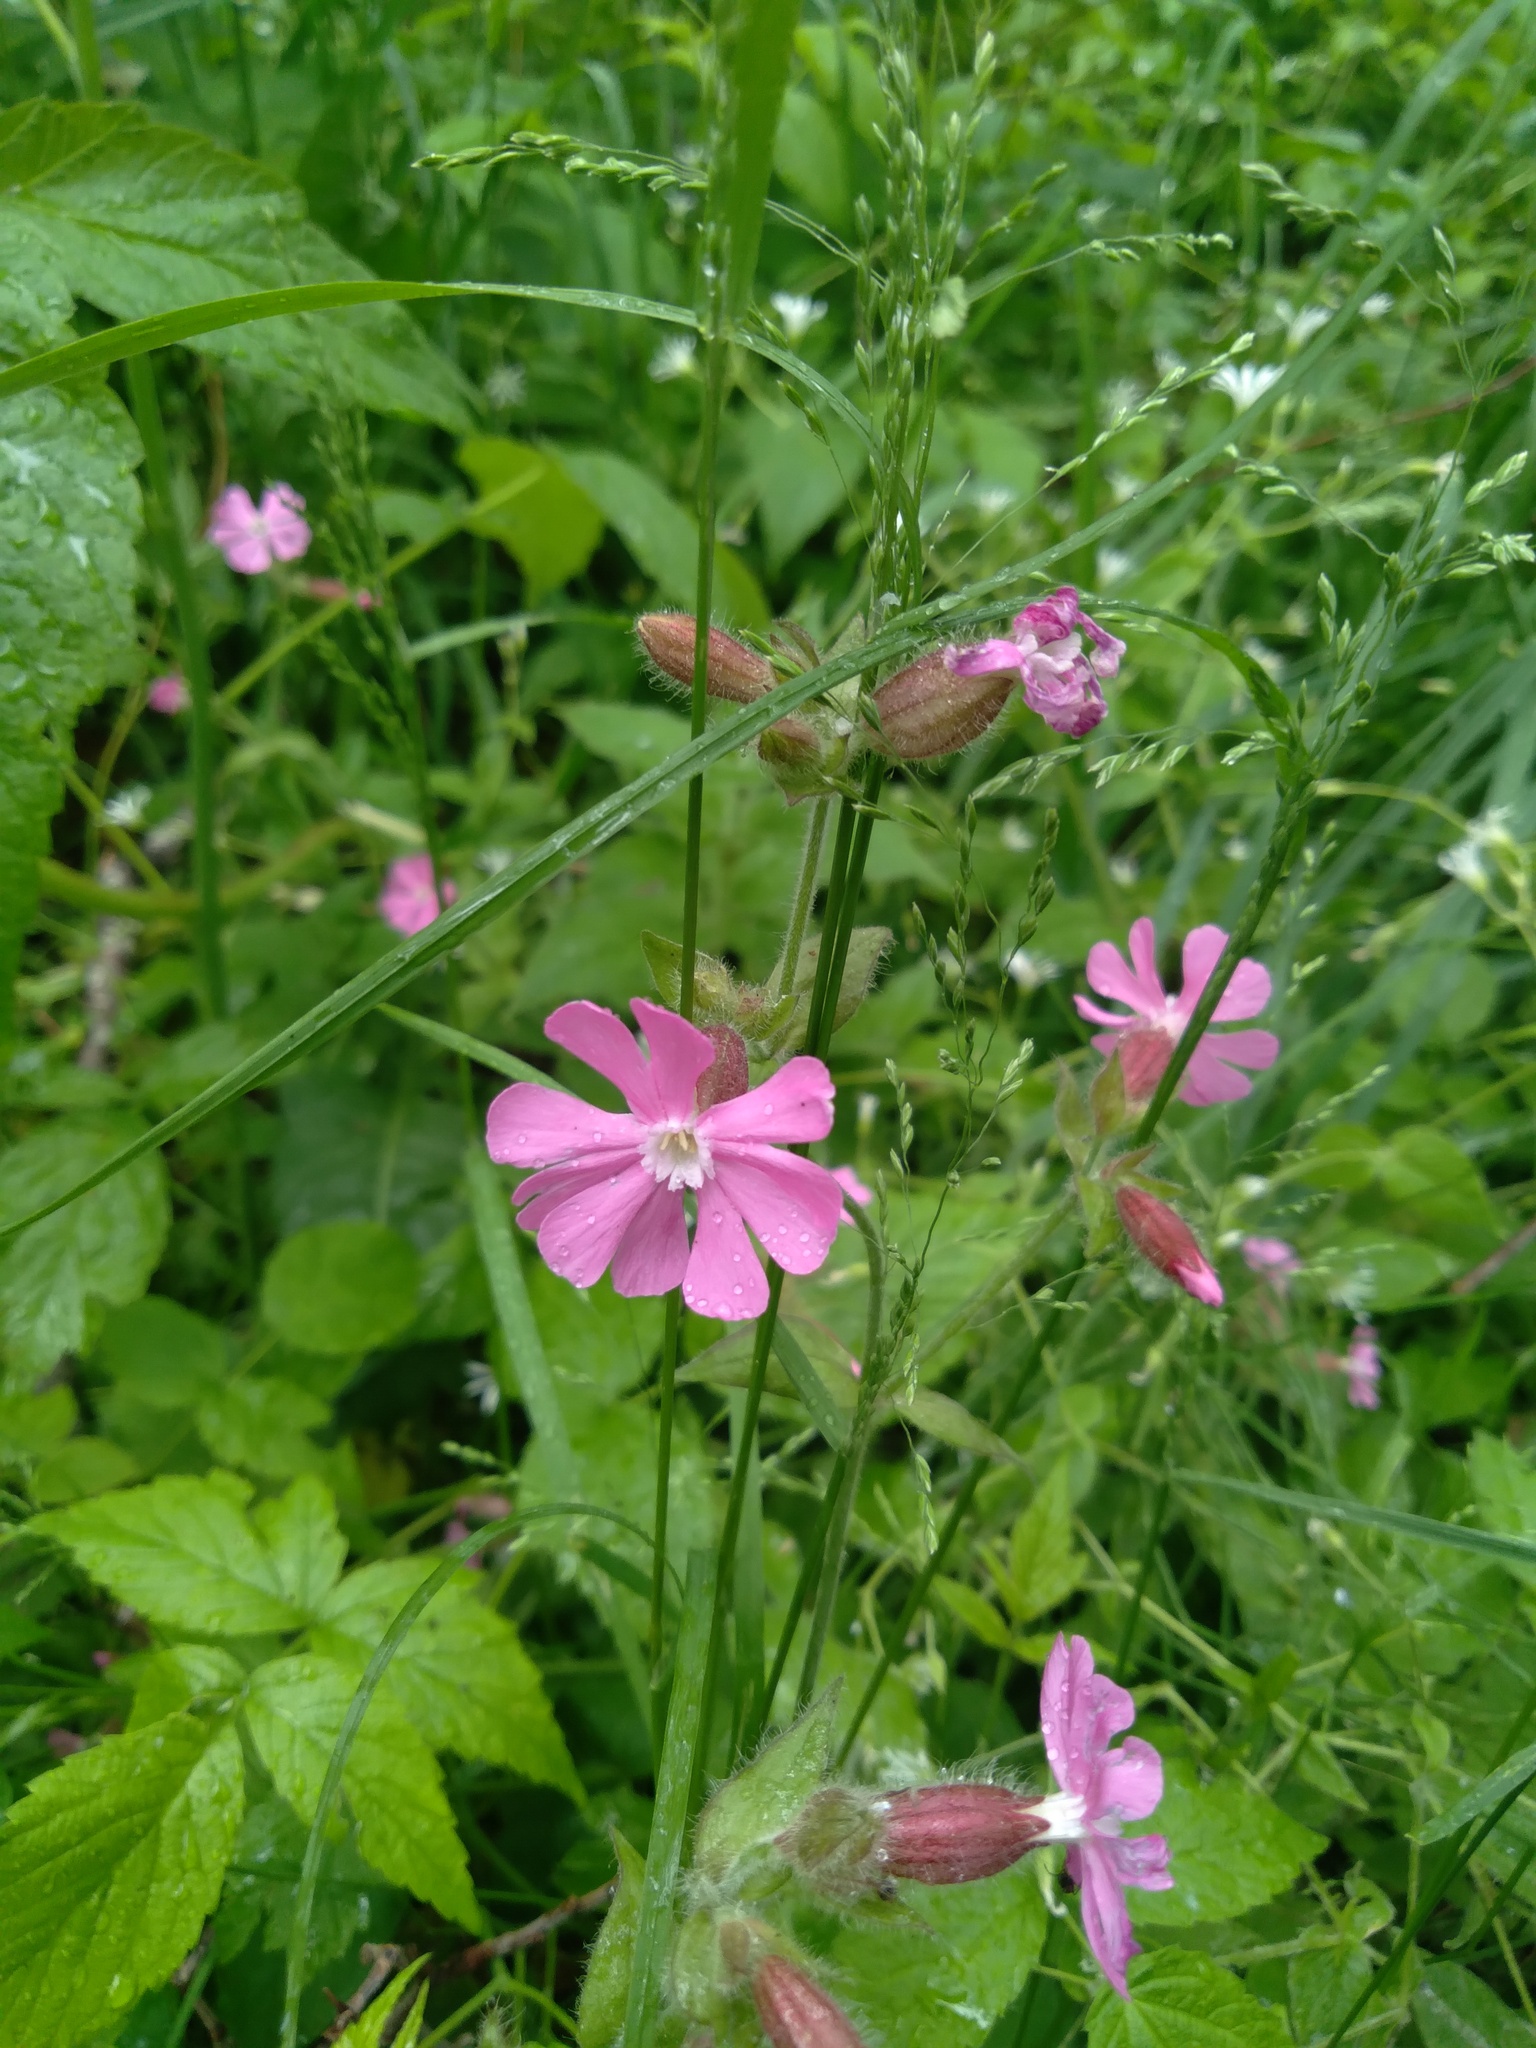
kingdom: Plantae
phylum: Tracheophyta
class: Magnoliopsida
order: Caryophyllales
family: Caryophyllaceae
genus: Silene
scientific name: Silene dioica
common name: Red campion
